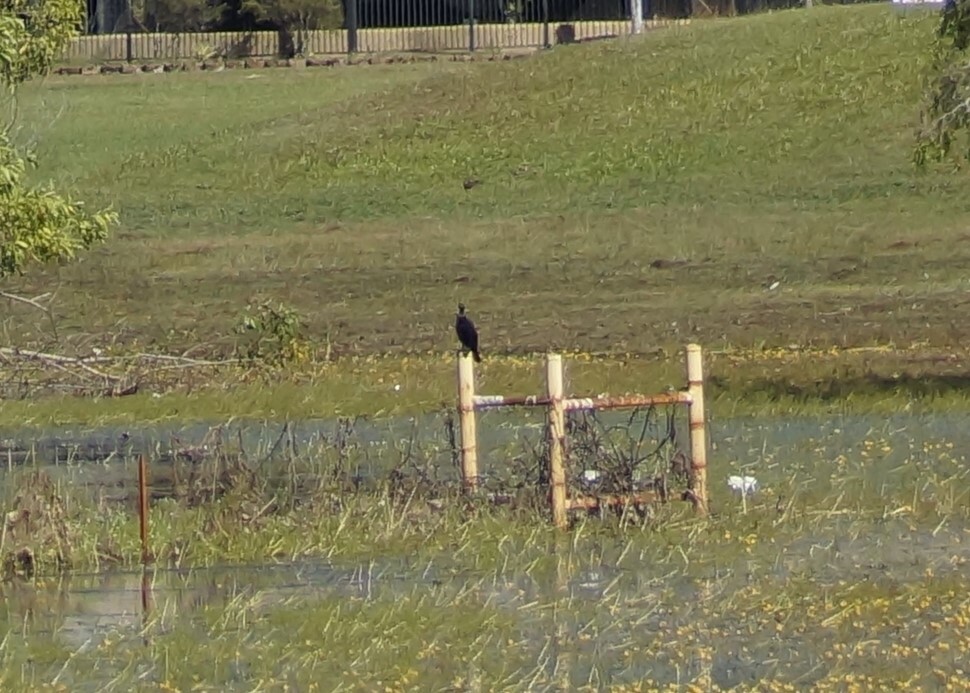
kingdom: Animalia
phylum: Chordata
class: Aves
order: Suliformes
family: Phalacrocoracidae
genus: Phalacrocorax
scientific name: Phalacrocorax sulcirostris
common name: Little black cormorant
